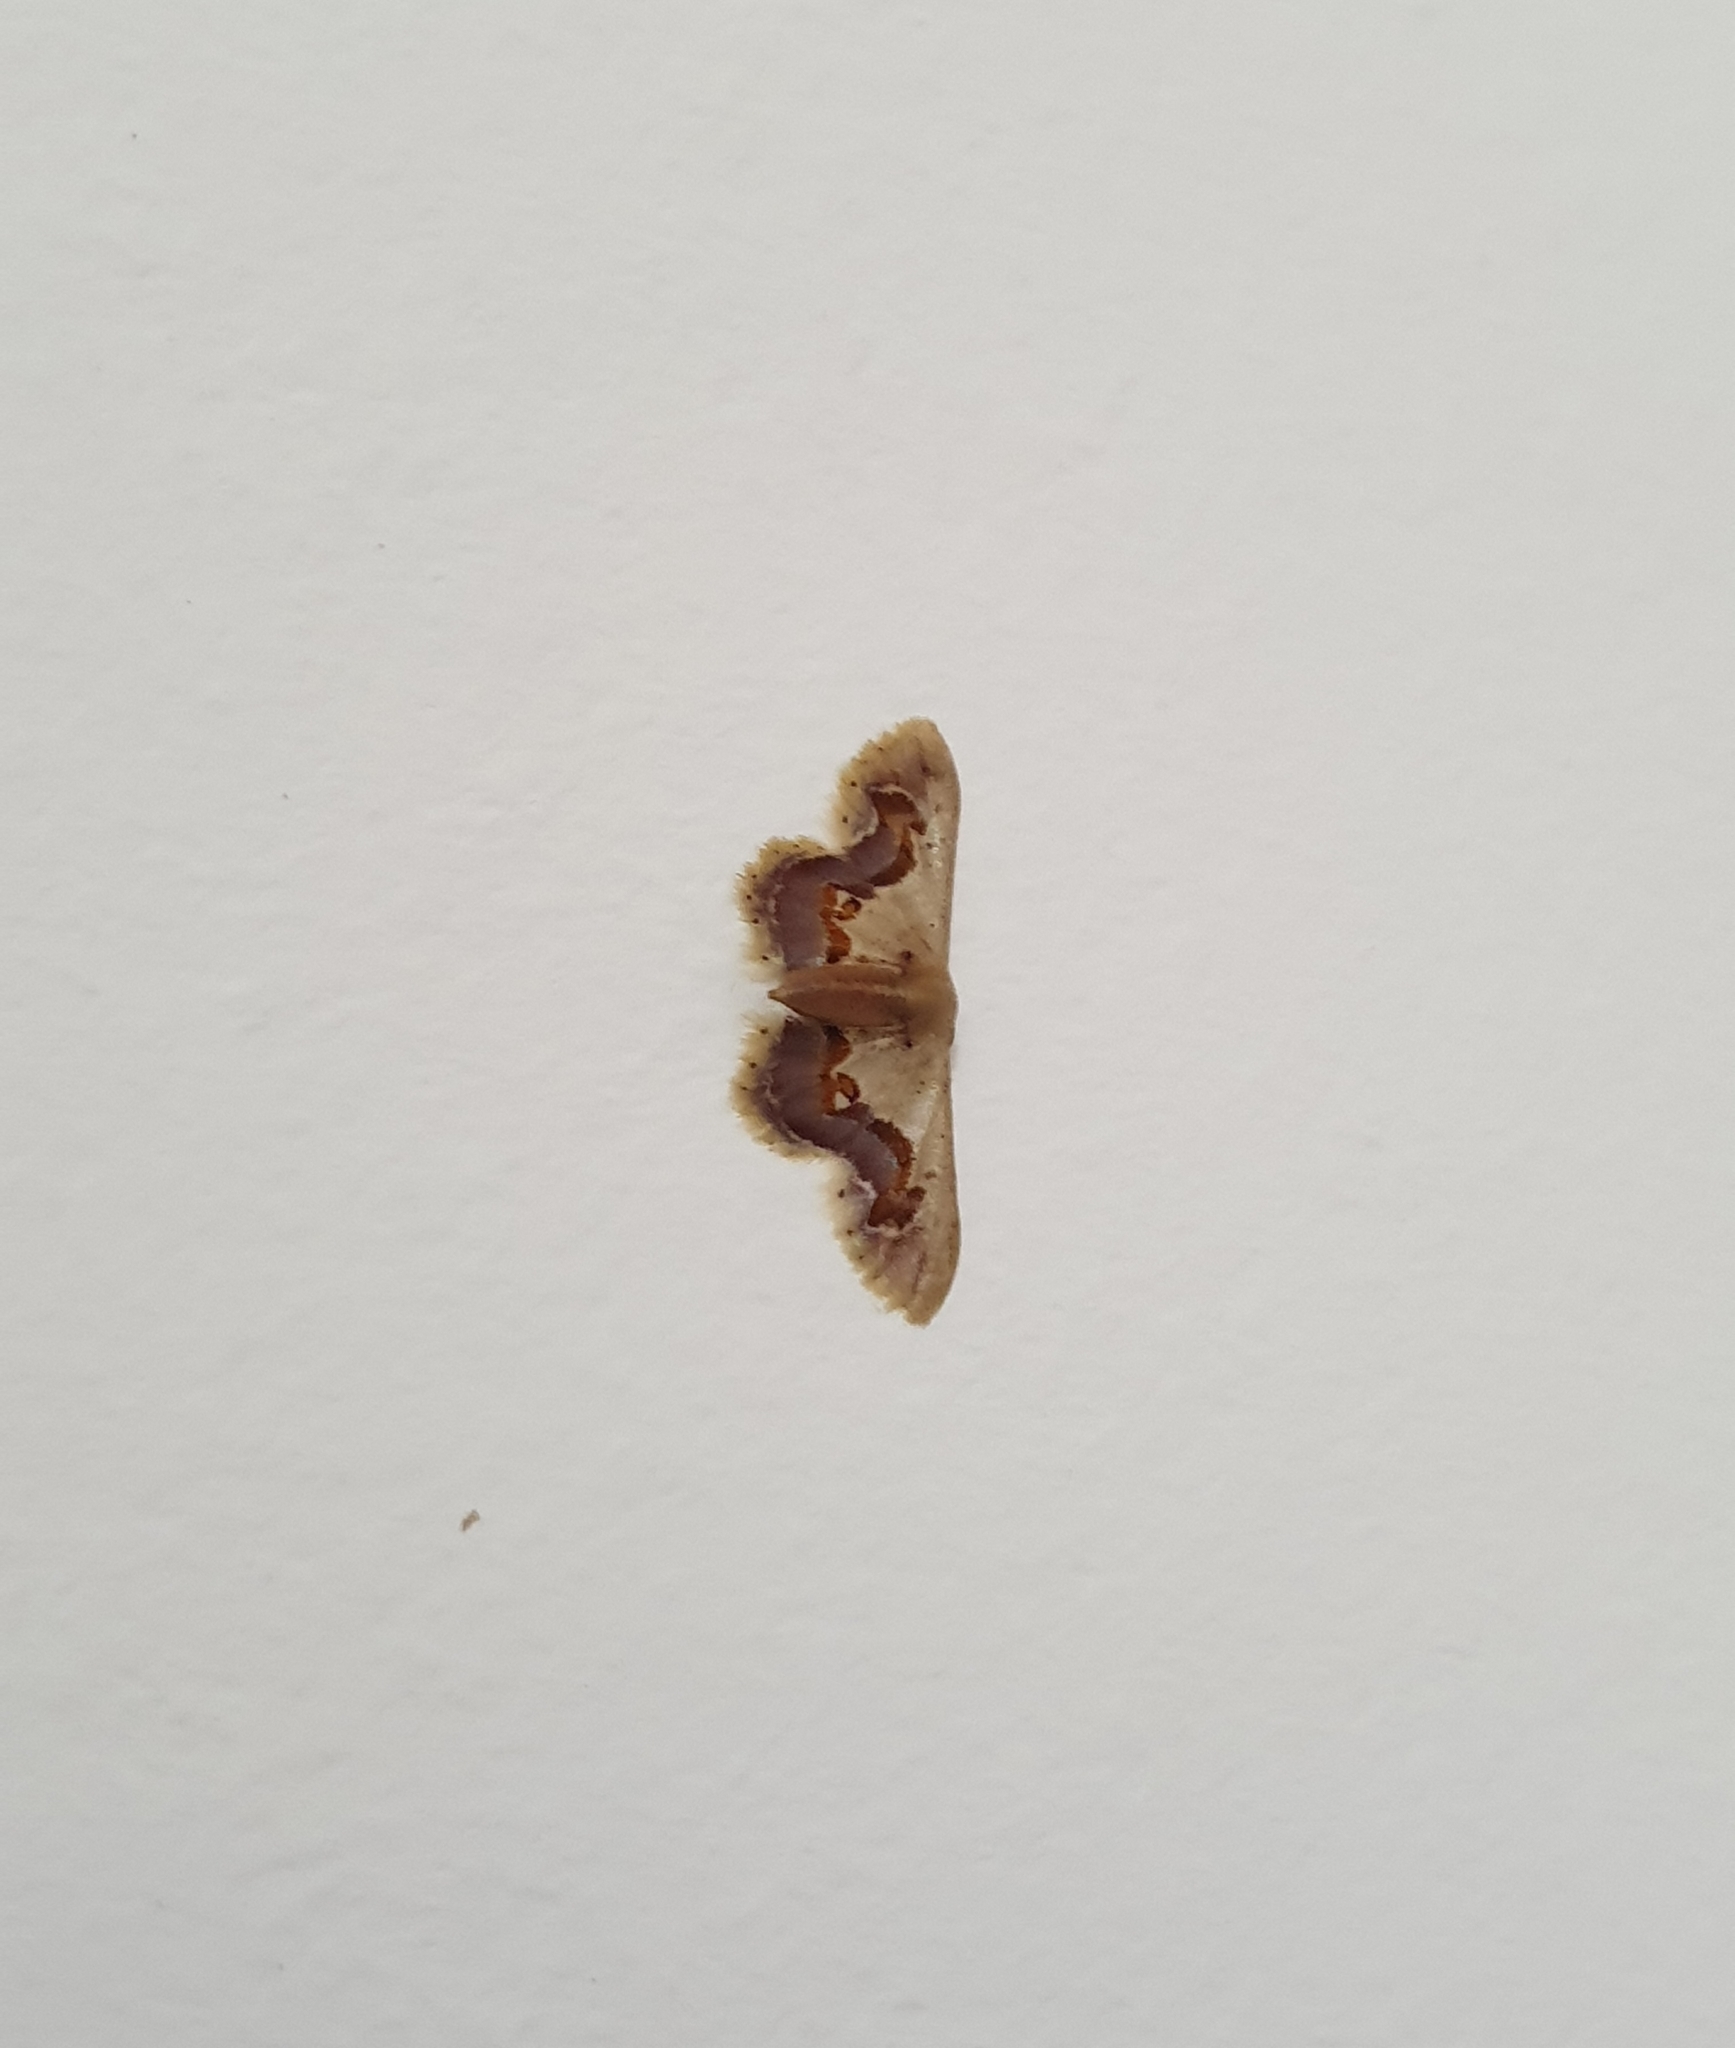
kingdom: Animalia
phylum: Arthropoda
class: Insecta
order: Lepidoptera
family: Geometridae
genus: Idaea
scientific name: Idaea gemmaria
